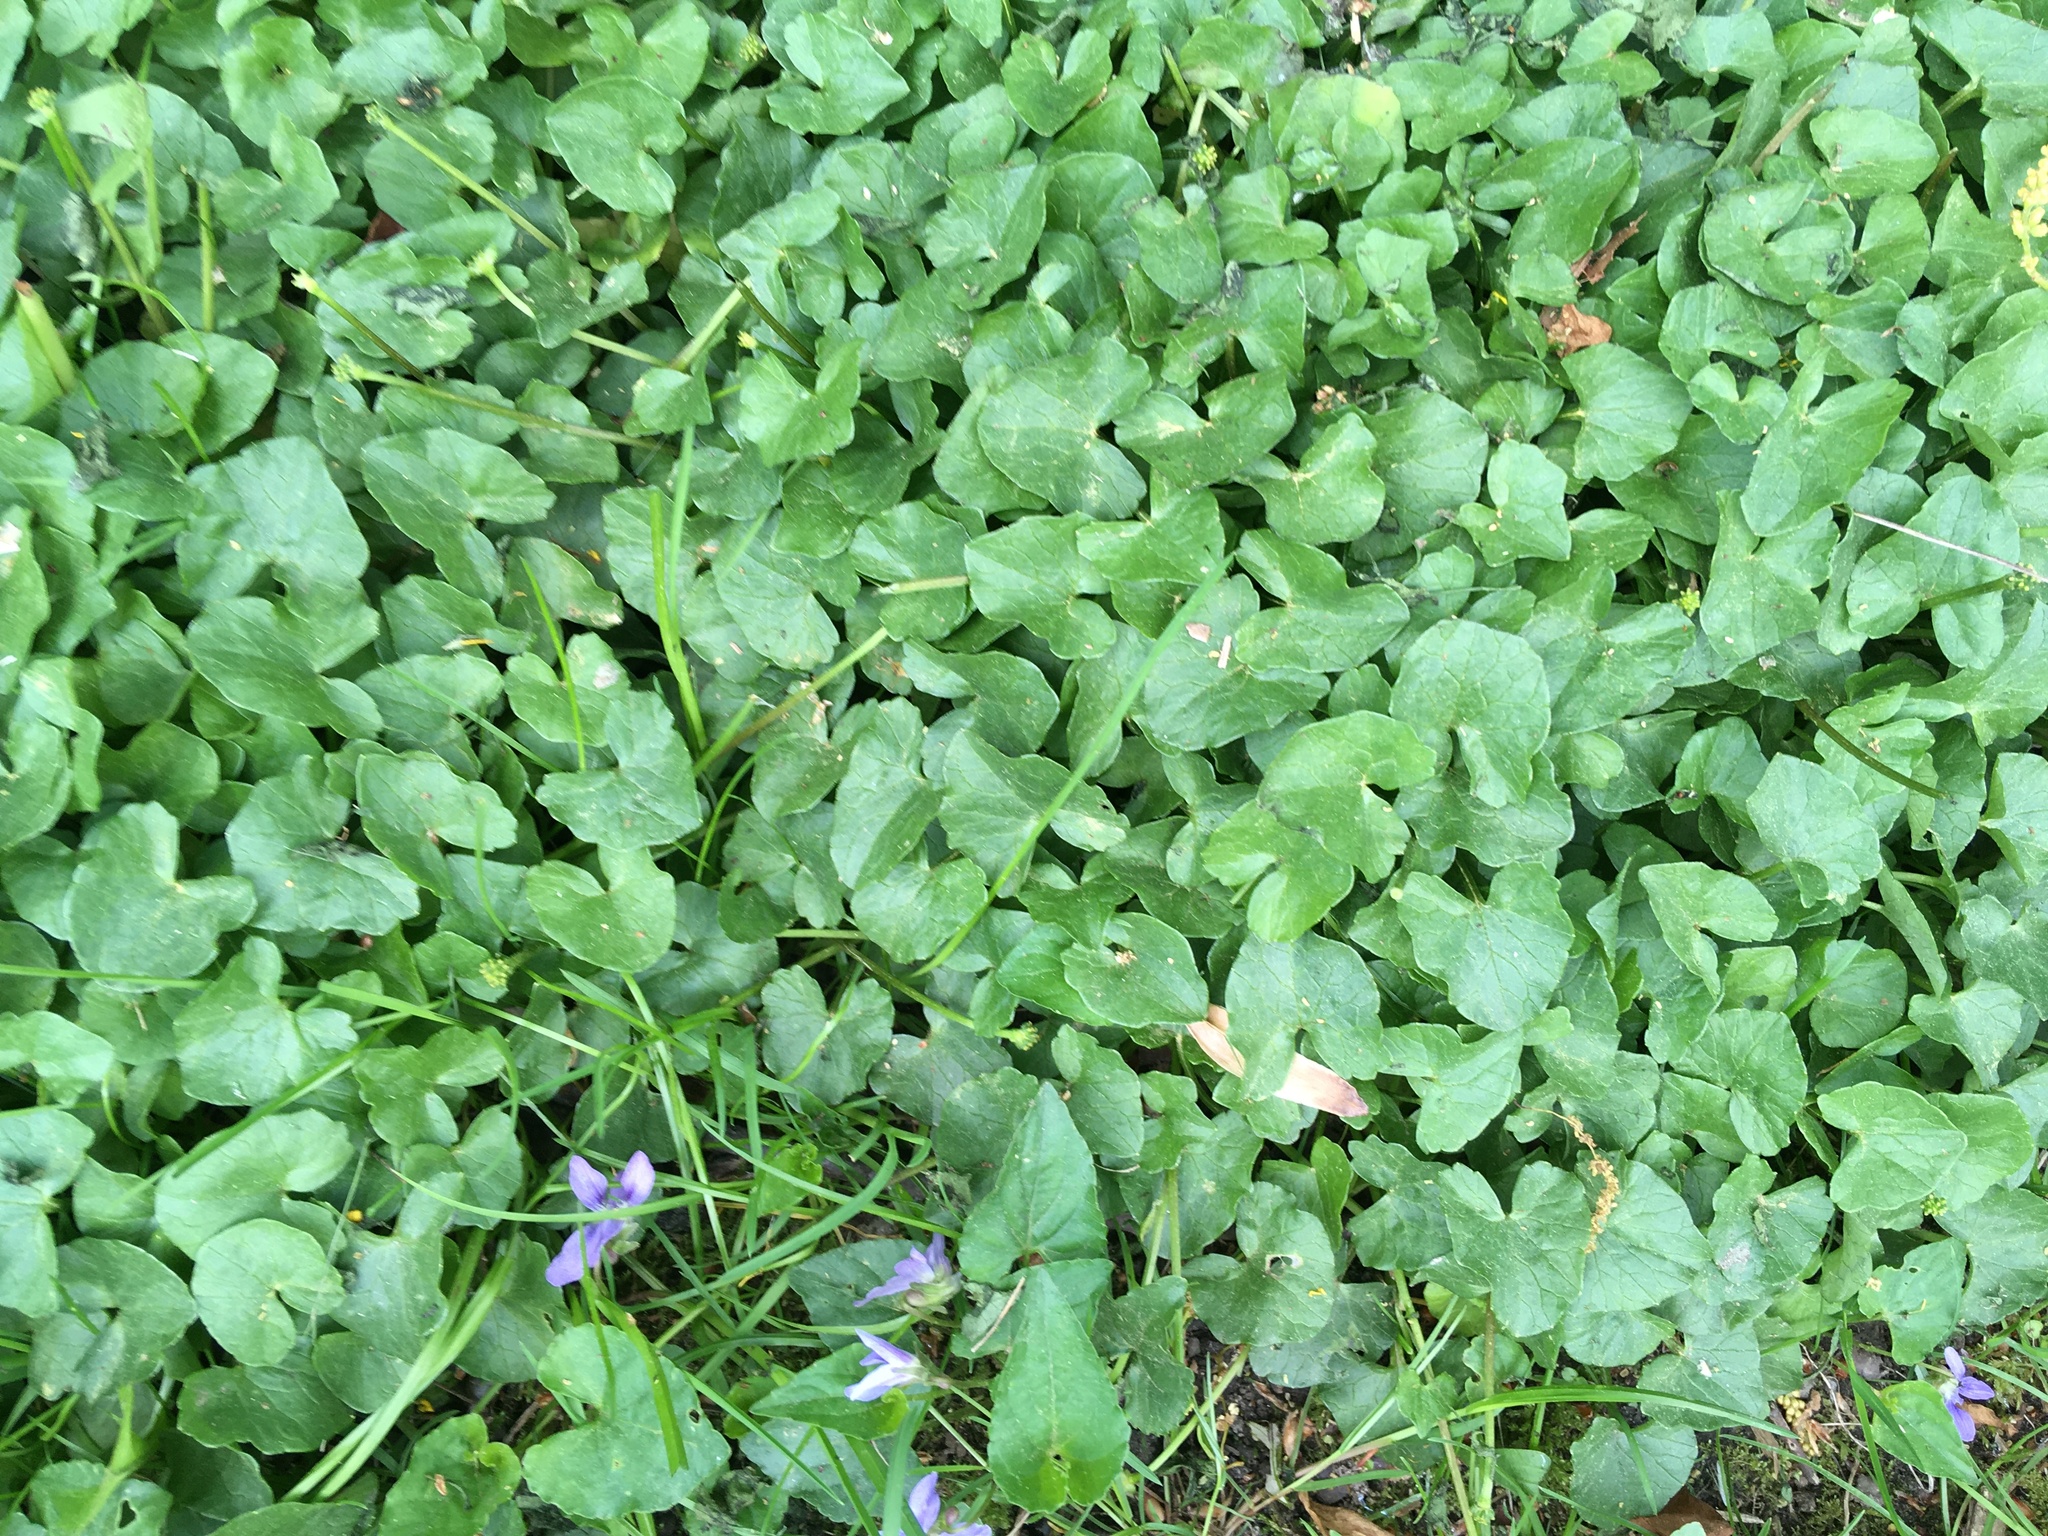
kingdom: Plantae
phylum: Tracheophyta
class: Magnoliopsida
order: Ranunculales
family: Ranunculaceae
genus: Ficaria
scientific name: Ficaria verna
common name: Lesser celandine
